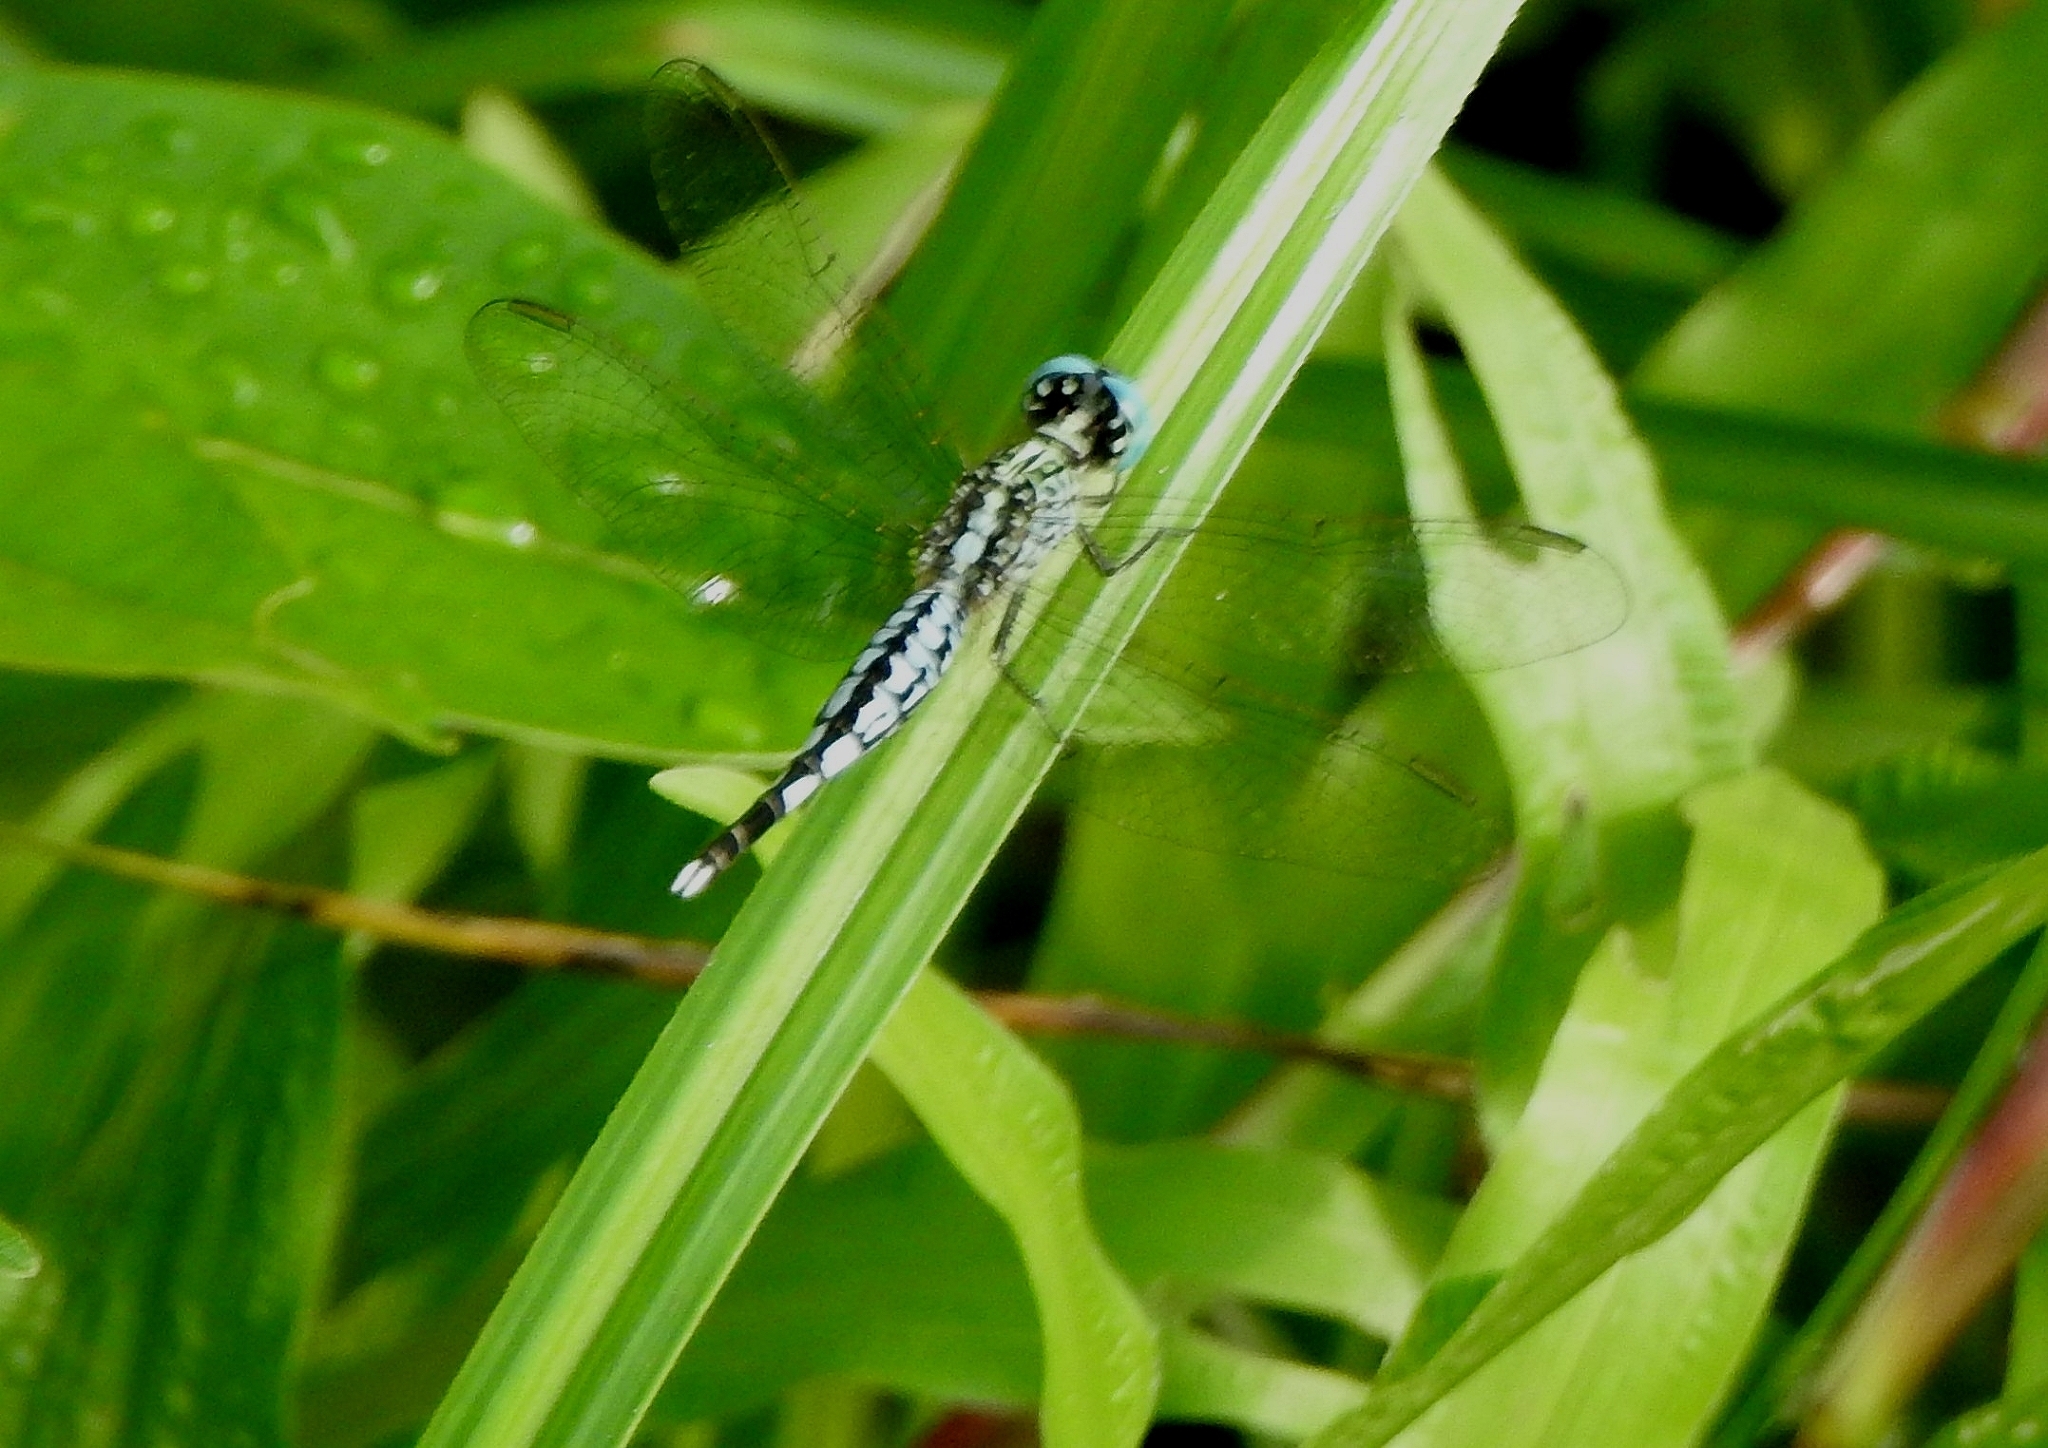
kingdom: Animalia
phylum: Arthropoda
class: Insecta
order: Odonata
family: Libellulidae
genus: Acisoma
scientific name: Acisoma panorpoides
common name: Asian pintail
